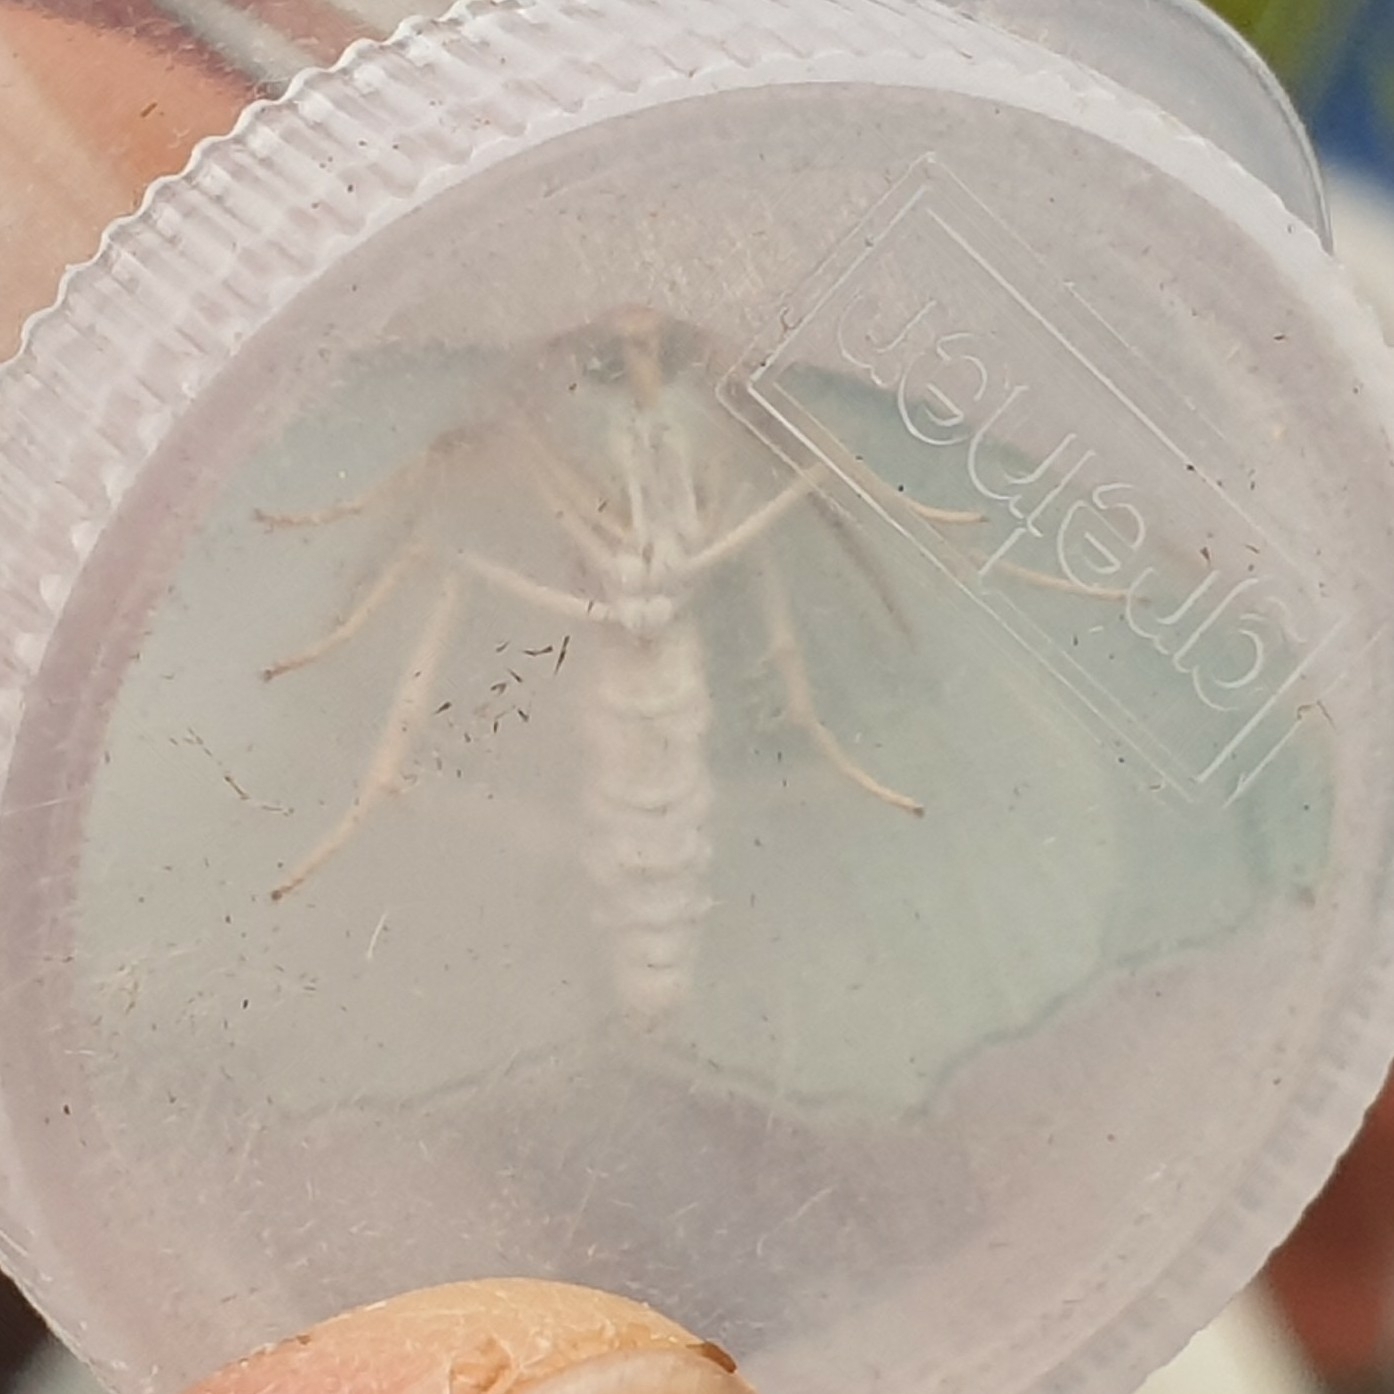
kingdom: Animalia
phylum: Arthropoda
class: Insecta
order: Lepidoptera
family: Geometridae
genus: Campaea
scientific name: Campaea margaritaria
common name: Light emerald
